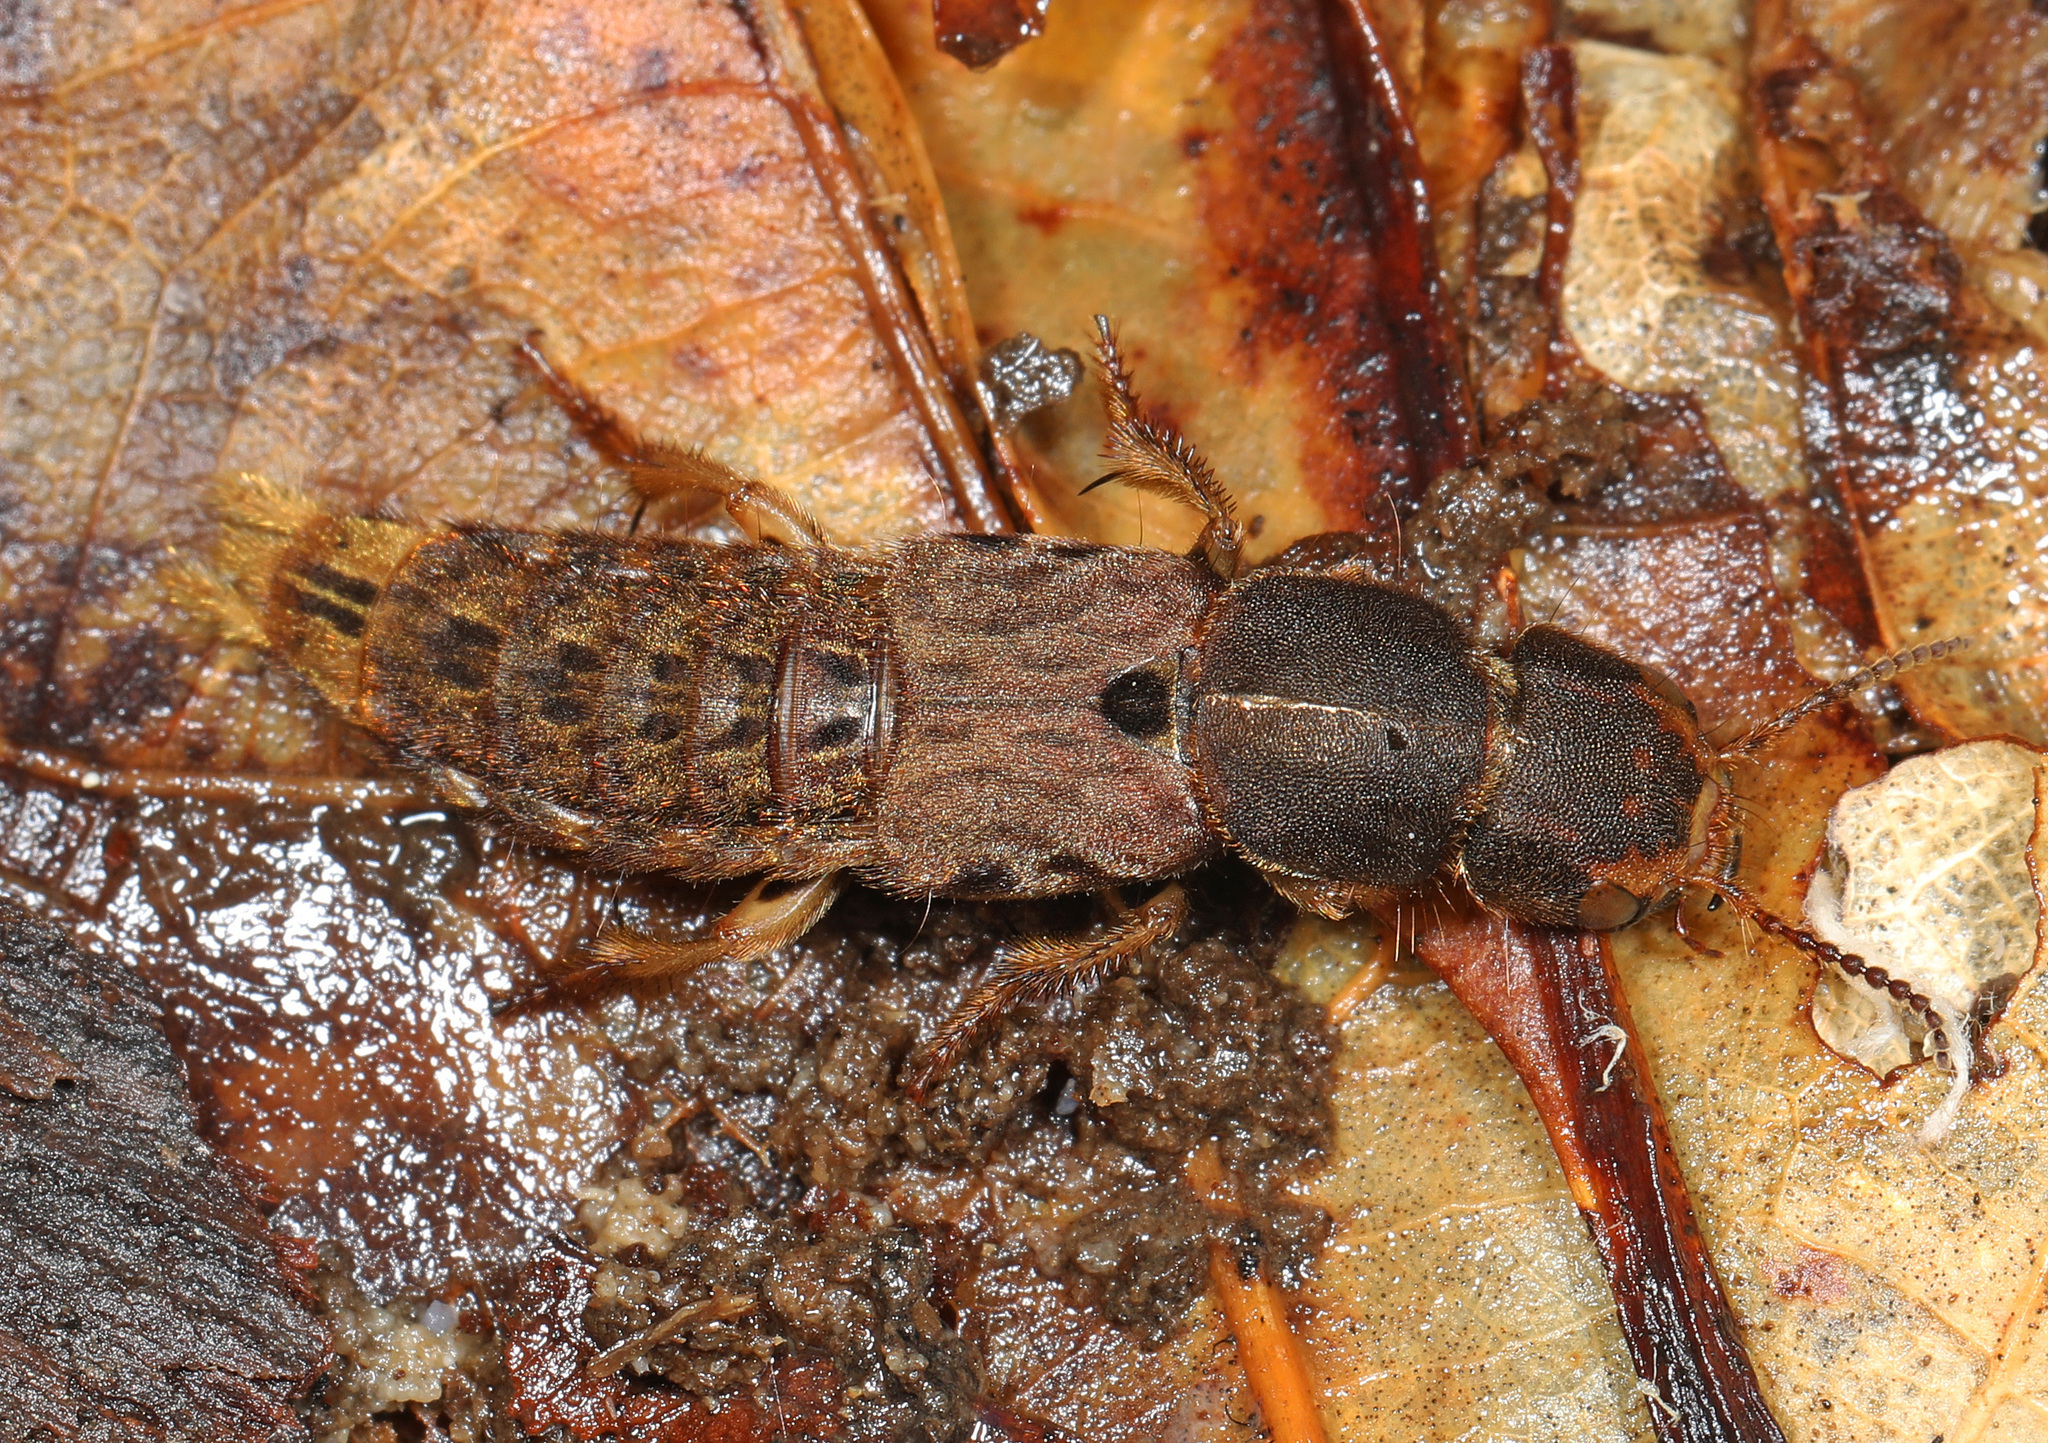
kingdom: Animalia
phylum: Arthropoda
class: Insecta
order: Coleoptera
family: Staphylinidae
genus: Platydracus
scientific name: Platydracus maculosus
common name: Brown rove beetle
